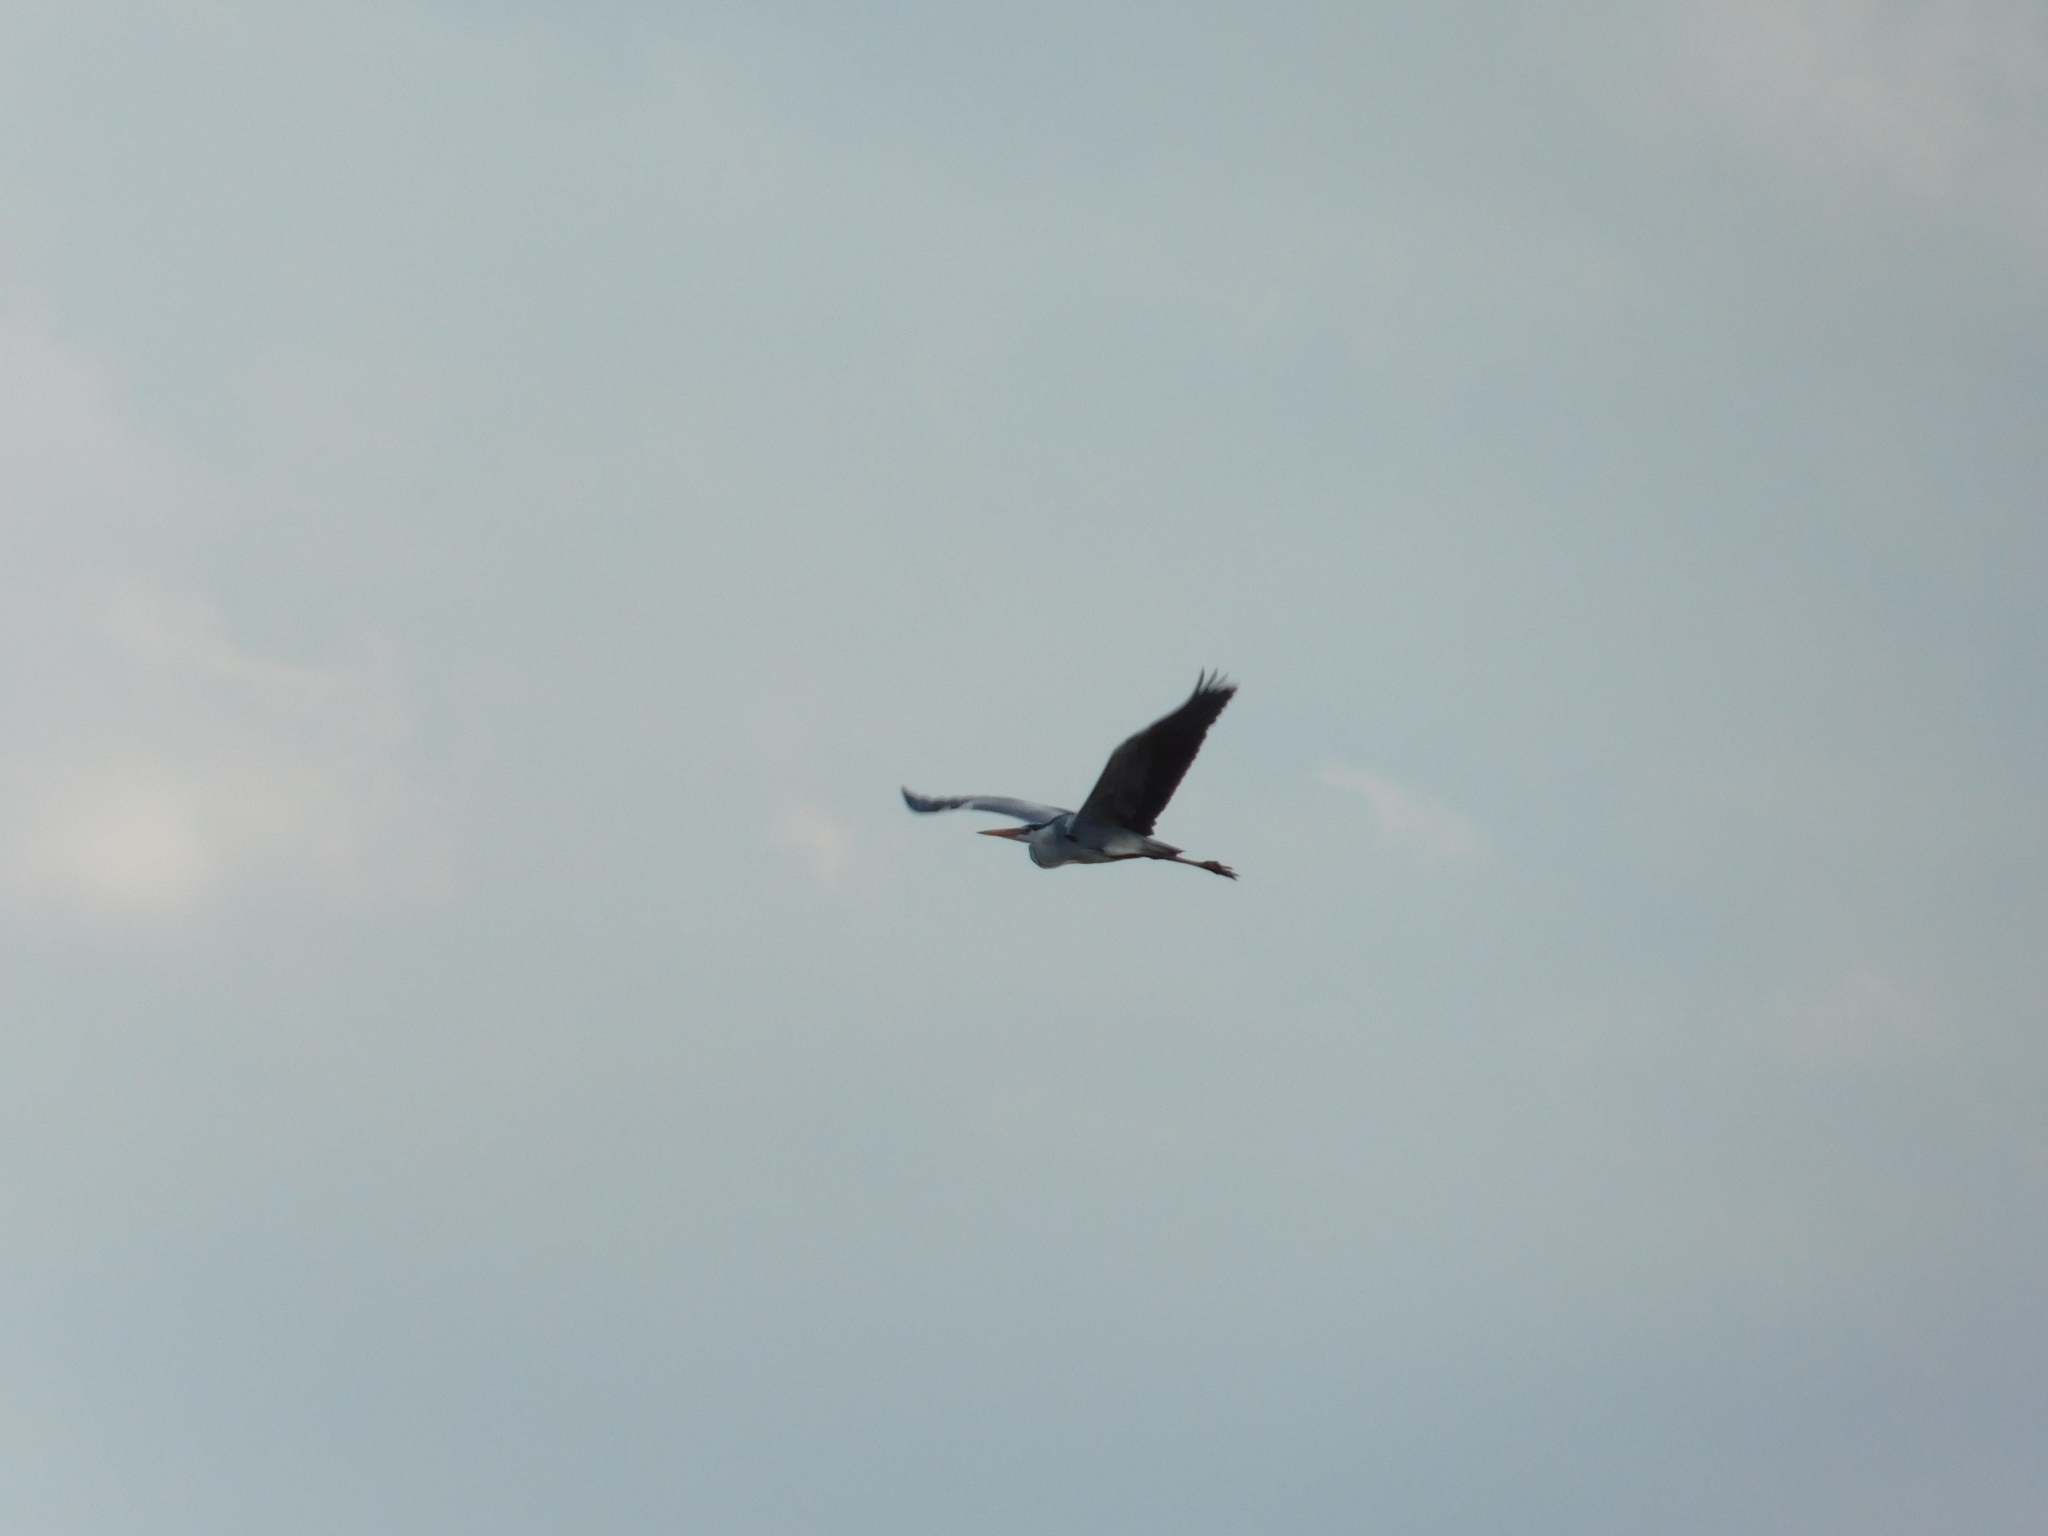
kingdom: Animalia
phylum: Chordata
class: Aves
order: Pelecaniformes
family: Ardeidae
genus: Ardea
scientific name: Ardea cinerea
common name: Grey heron
